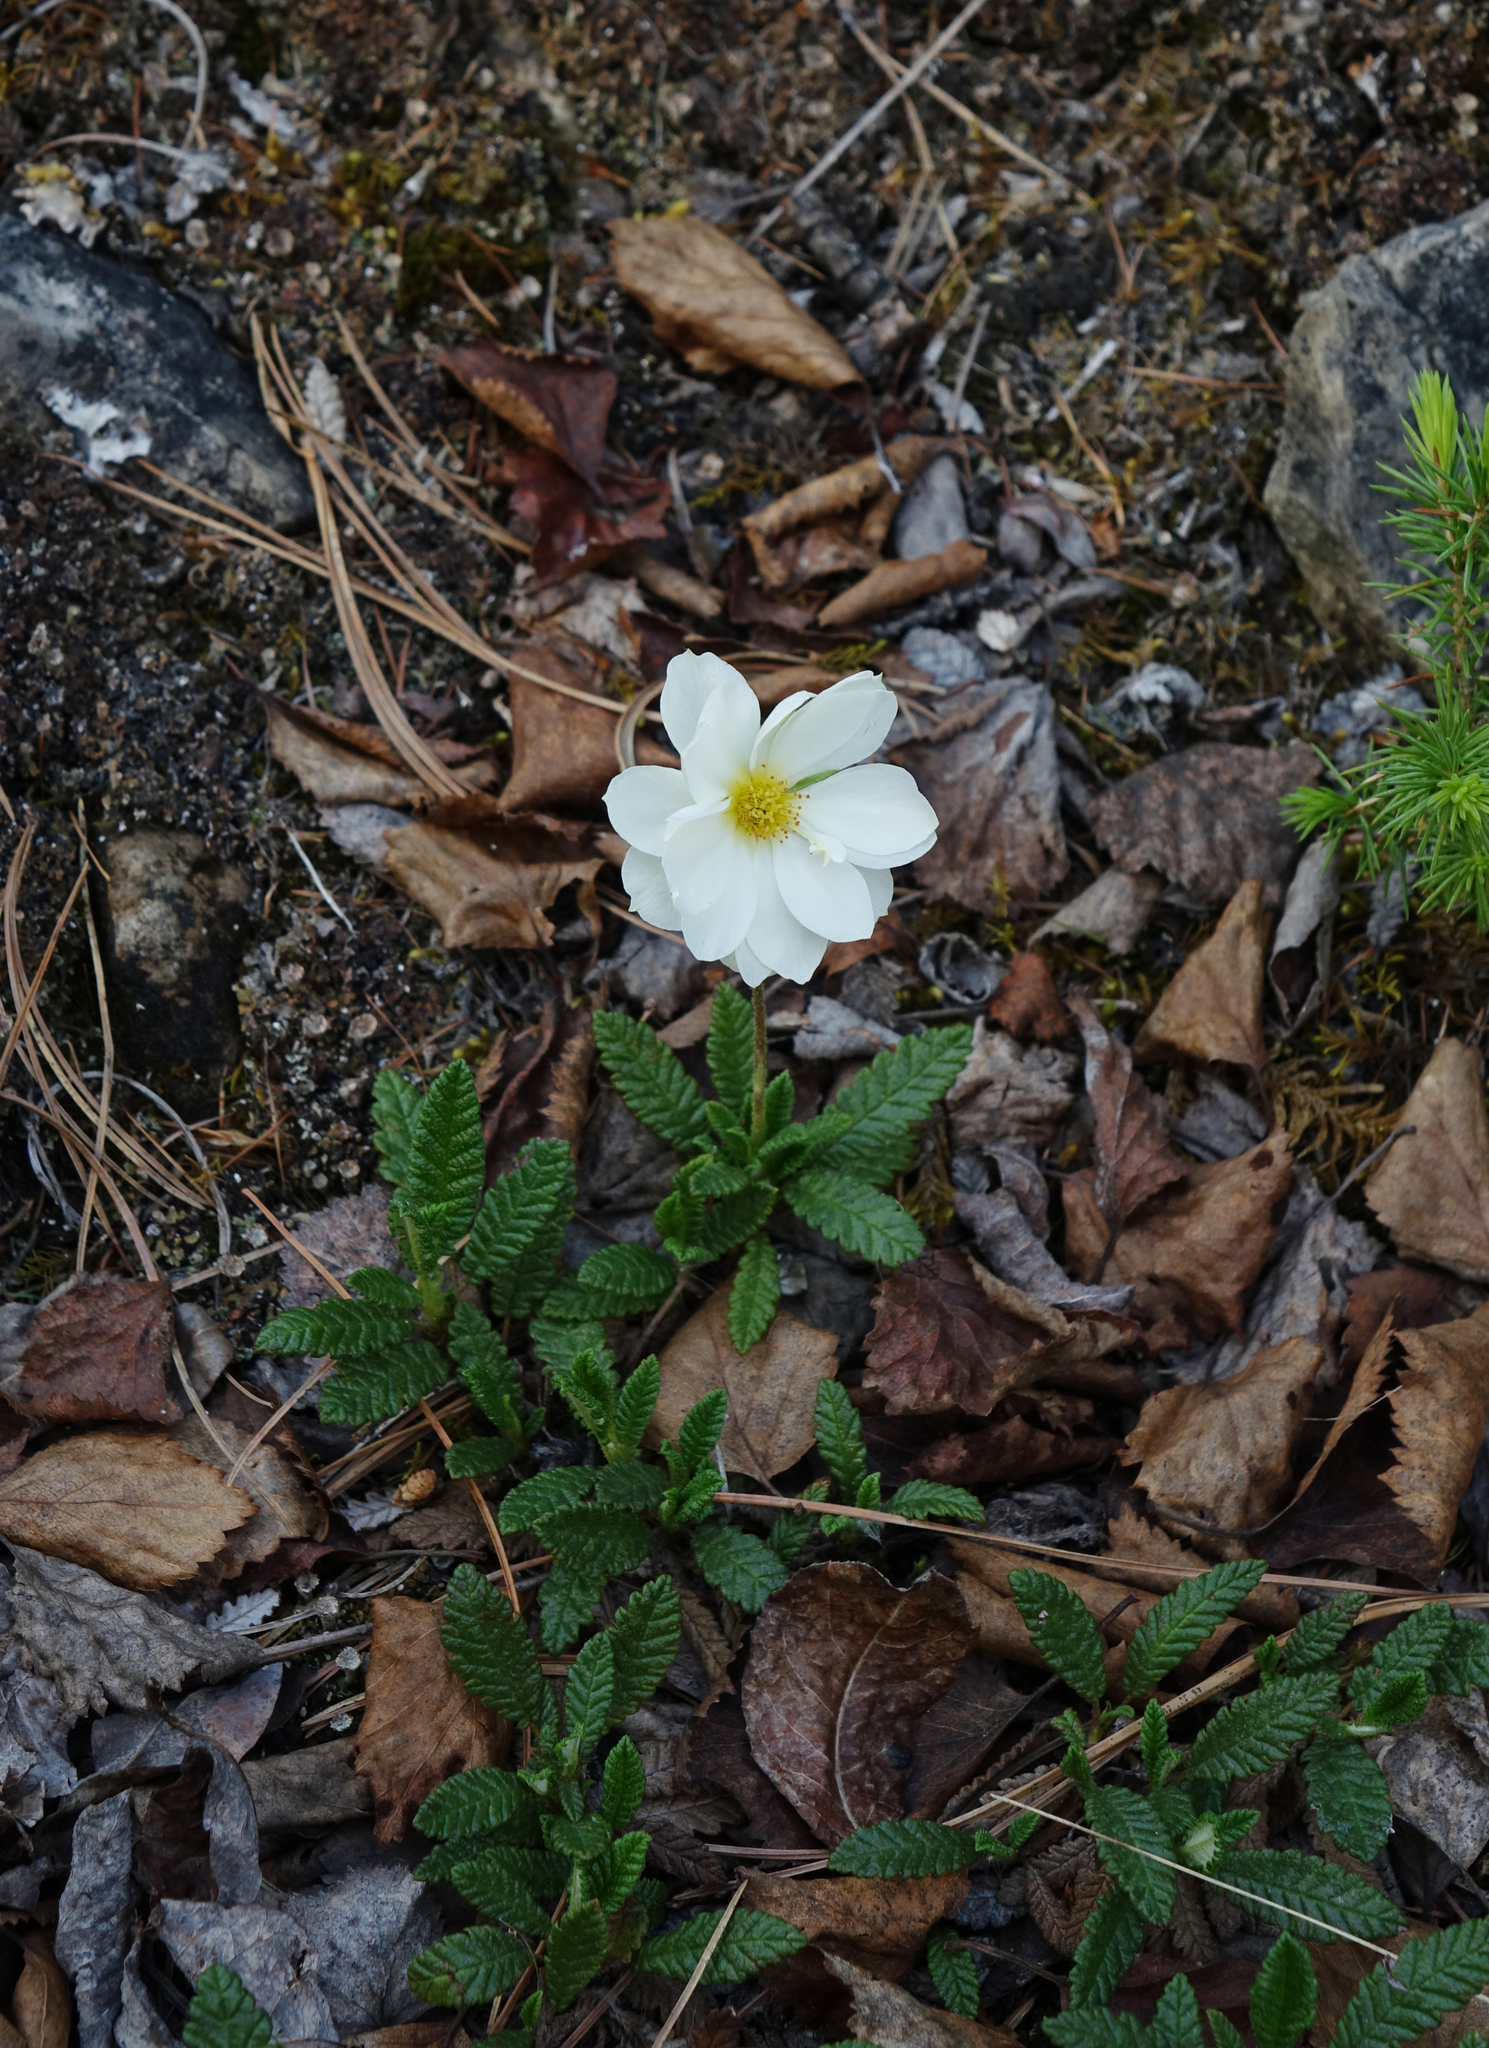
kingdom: Plantae
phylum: Tracheophyta
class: Magnoliopsida
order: Rosales
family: Rosaceae
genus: Dryas
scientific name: Dryas octopetala
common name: Eight-petal mountain-avens
